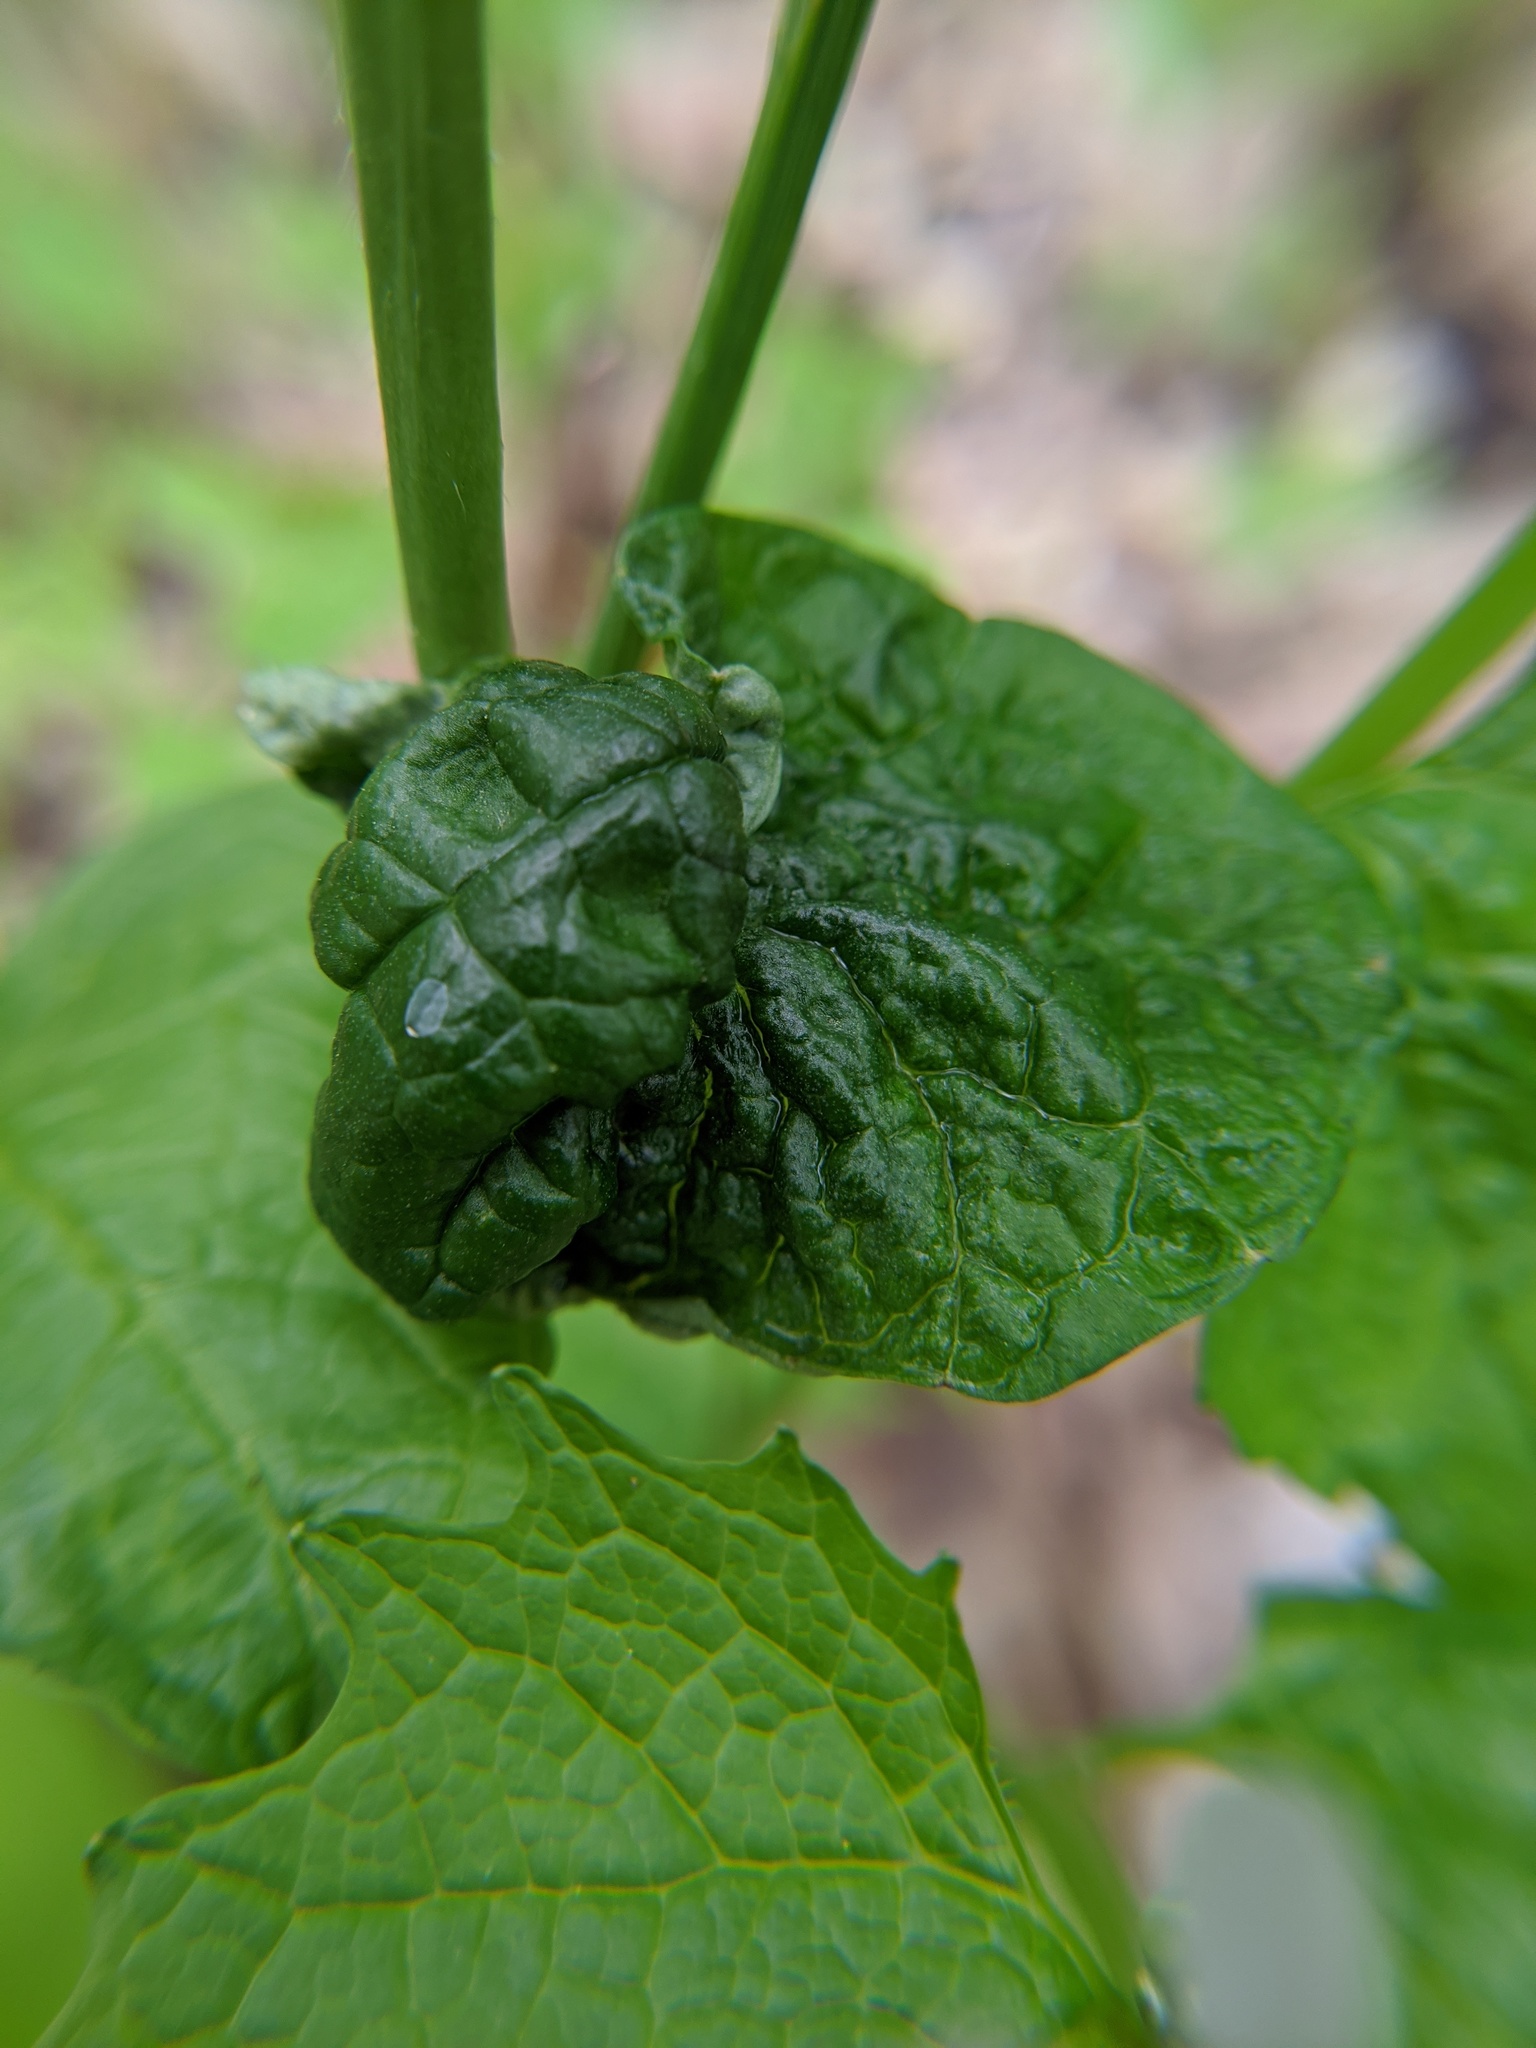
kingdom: Viruses
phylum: Kitrinoviricota
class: Tolucaviricetes
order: Tolivirales
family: Tombusviridae
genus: Betacarmovirus
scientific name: Betacarmovirus brassicae
